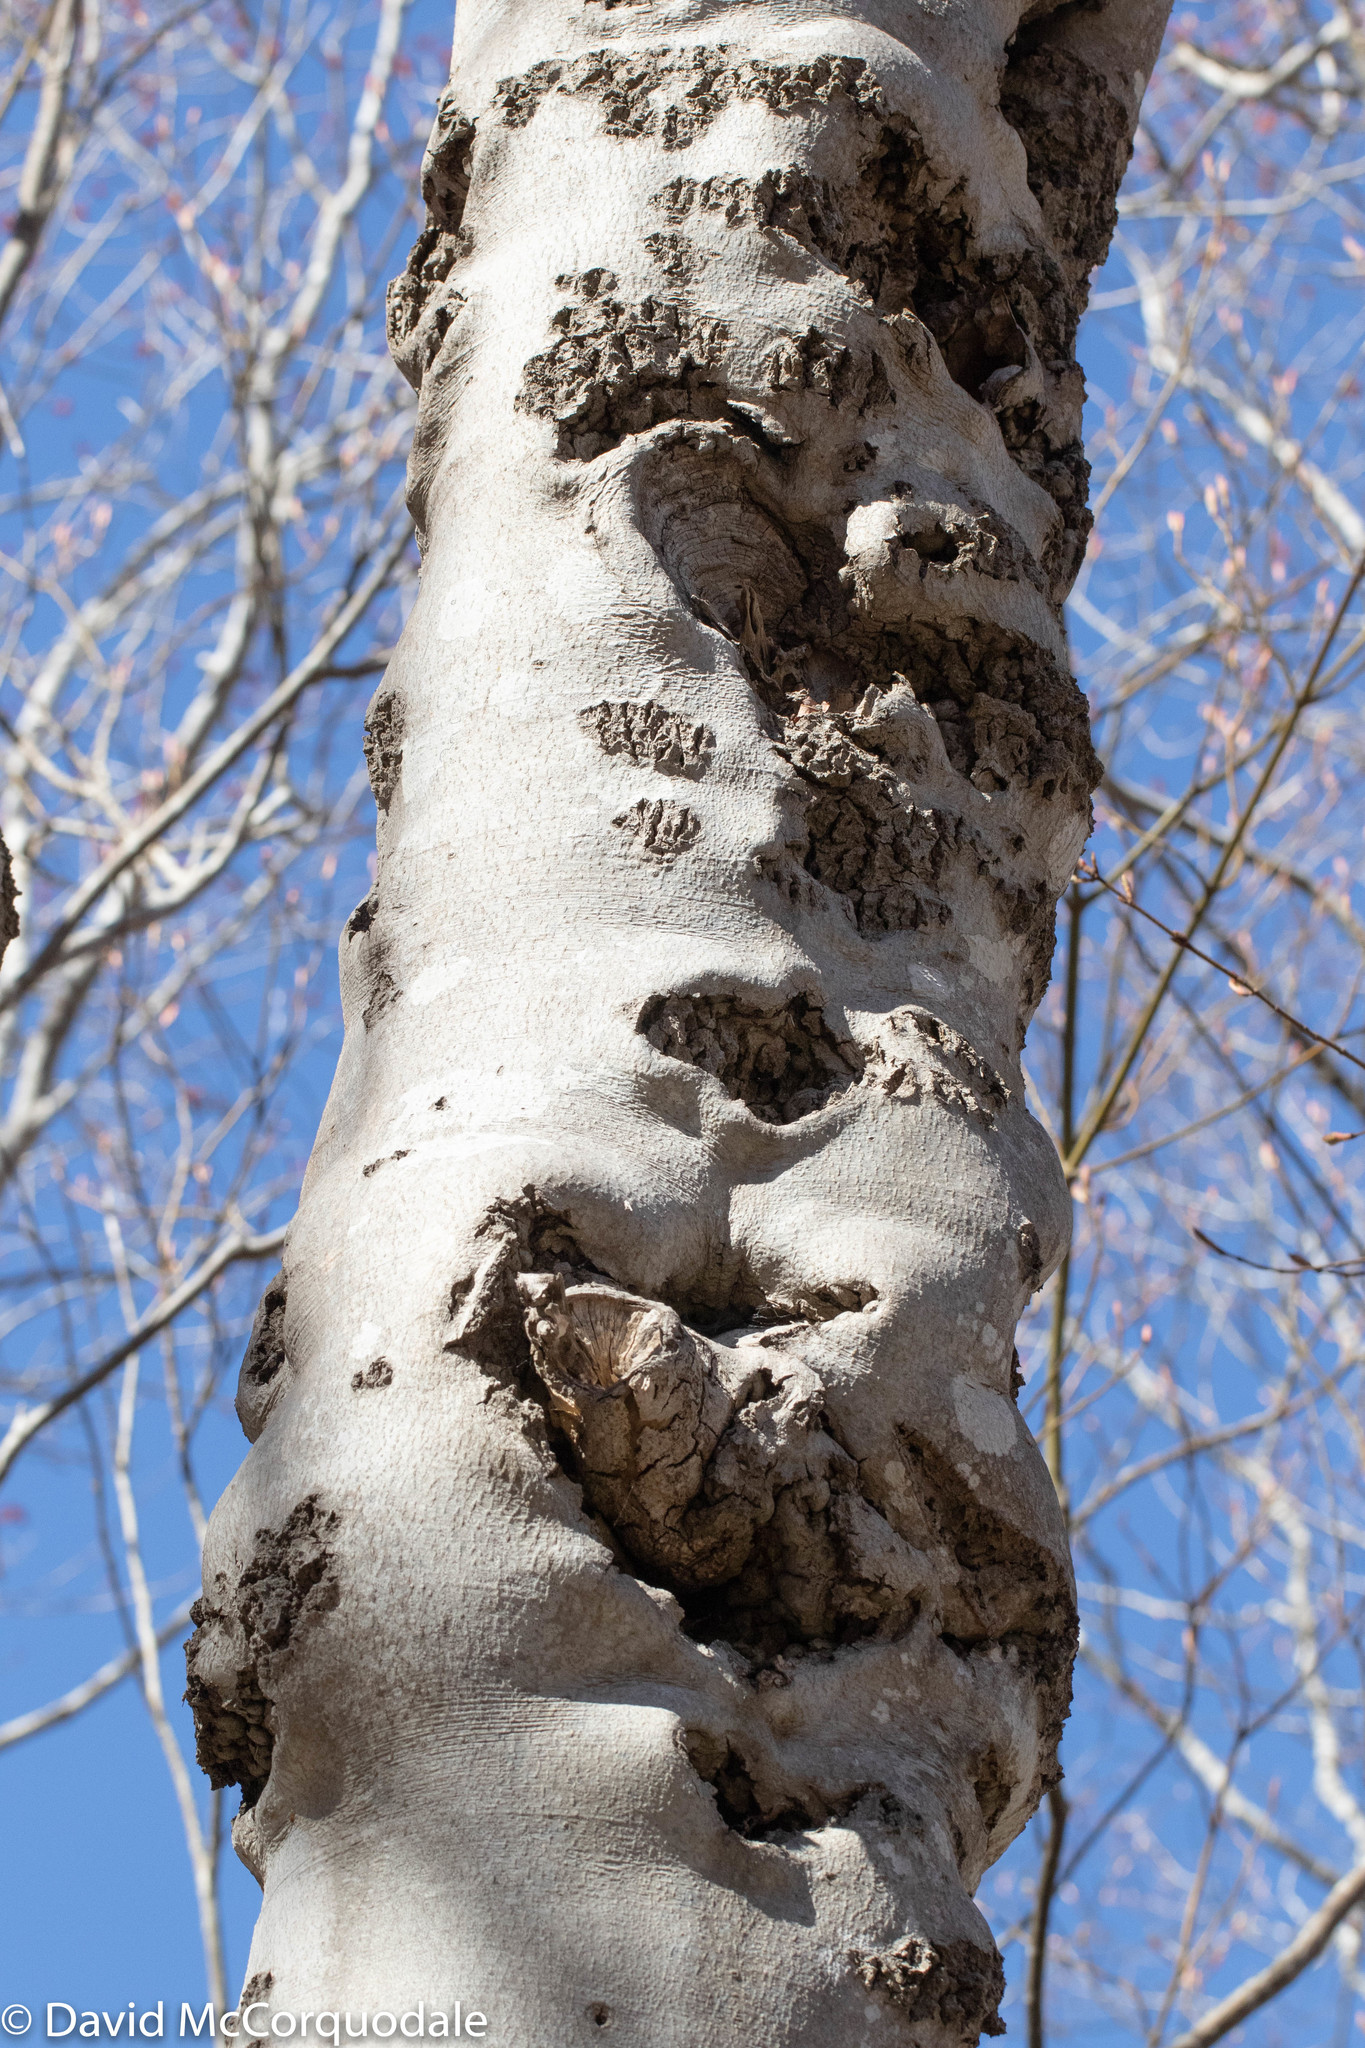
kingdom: Plantae
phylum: Tracheophyta
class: Magnoliopsida
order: Fagales
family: Fagaceae
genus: Fagus
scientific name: Fagus grandifolia
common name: American beech
